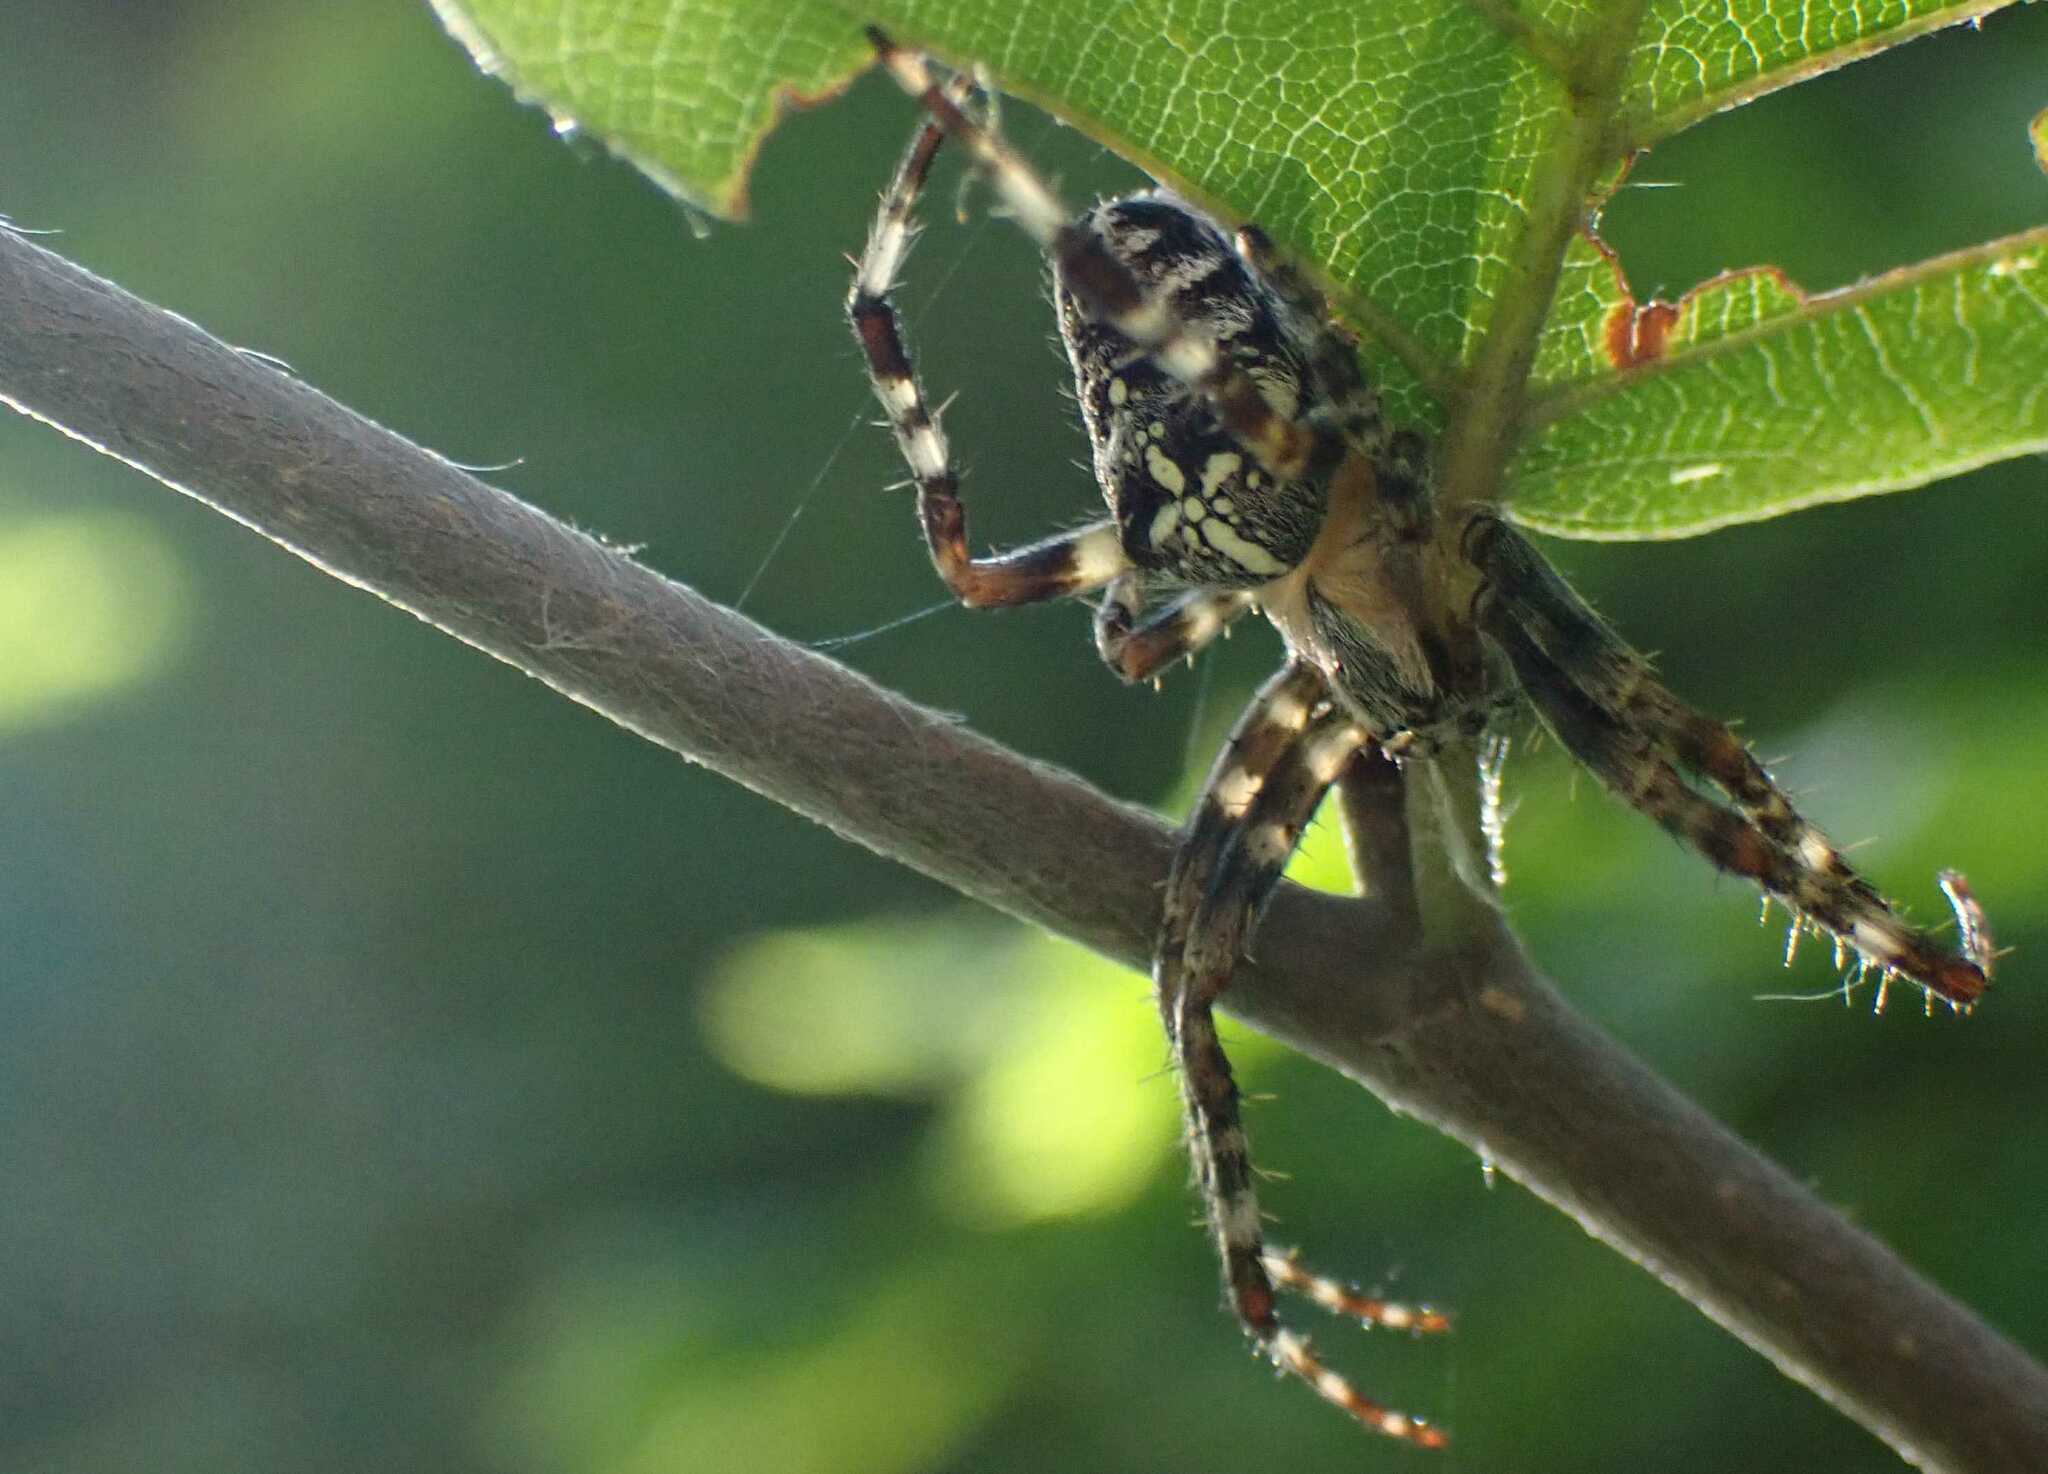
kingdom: Animalia
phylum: Arthropoda
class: Arachnida
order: Araneae
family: Araneidae
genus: Araneus
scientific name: Araneus diadematus
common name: Cross orbweaver
